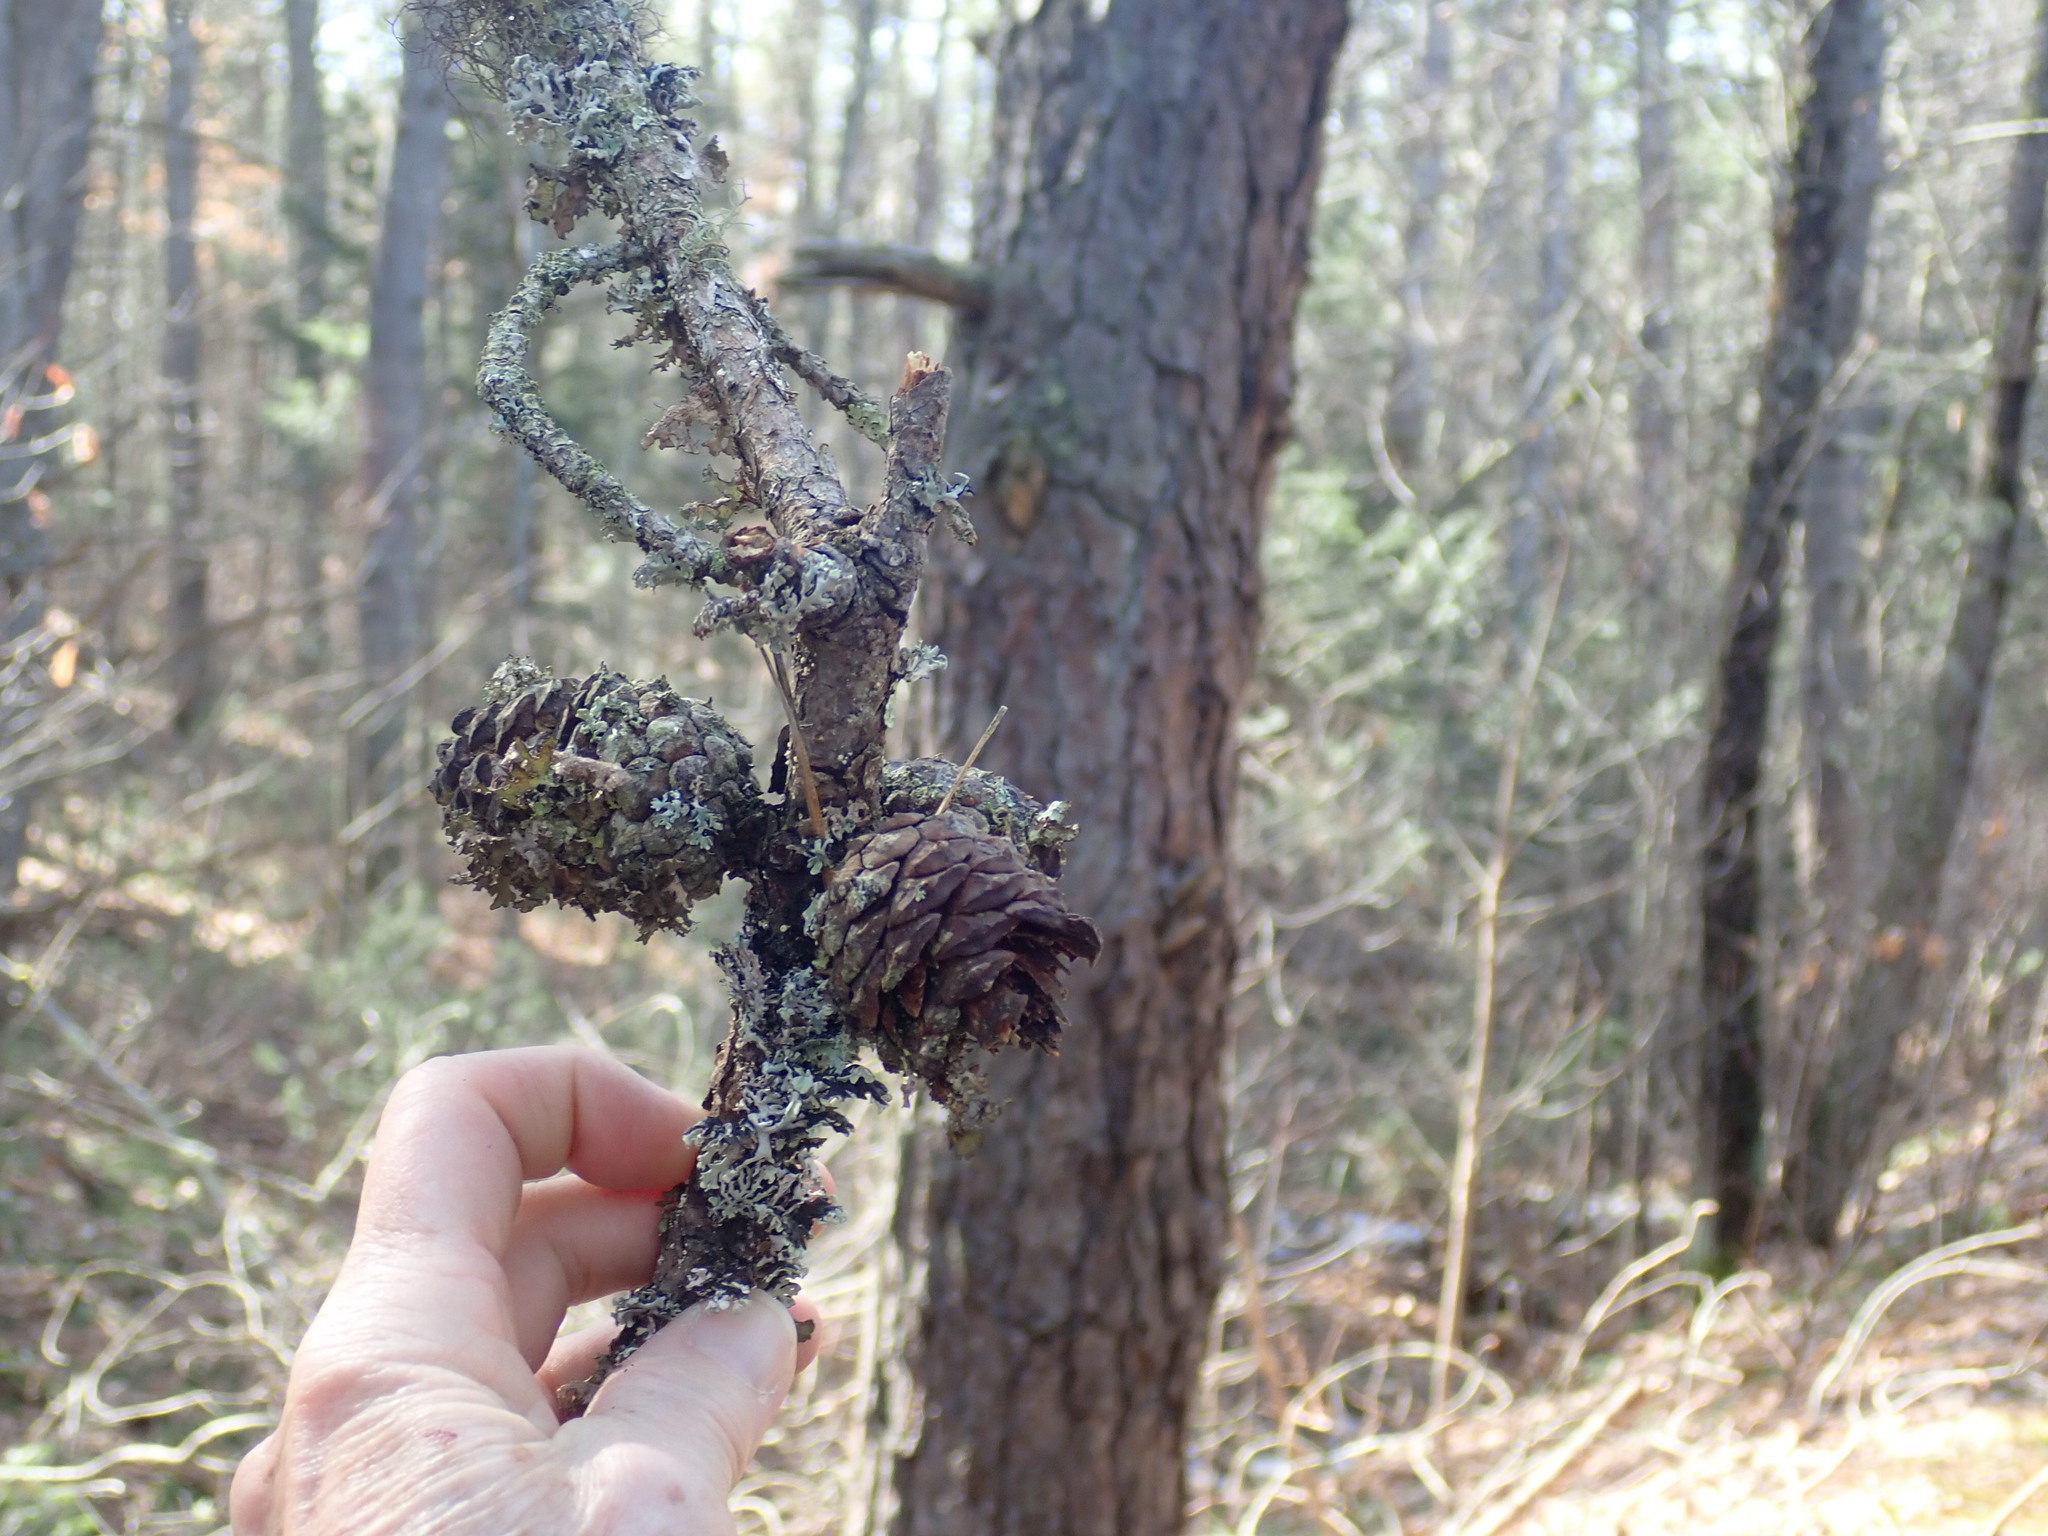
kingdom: Plantae
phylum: Tracheophyta
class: Pinopsida
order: Pinales
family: Pinaceae
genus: Pinus
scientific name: Pinus rigida
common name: Pitch pine
